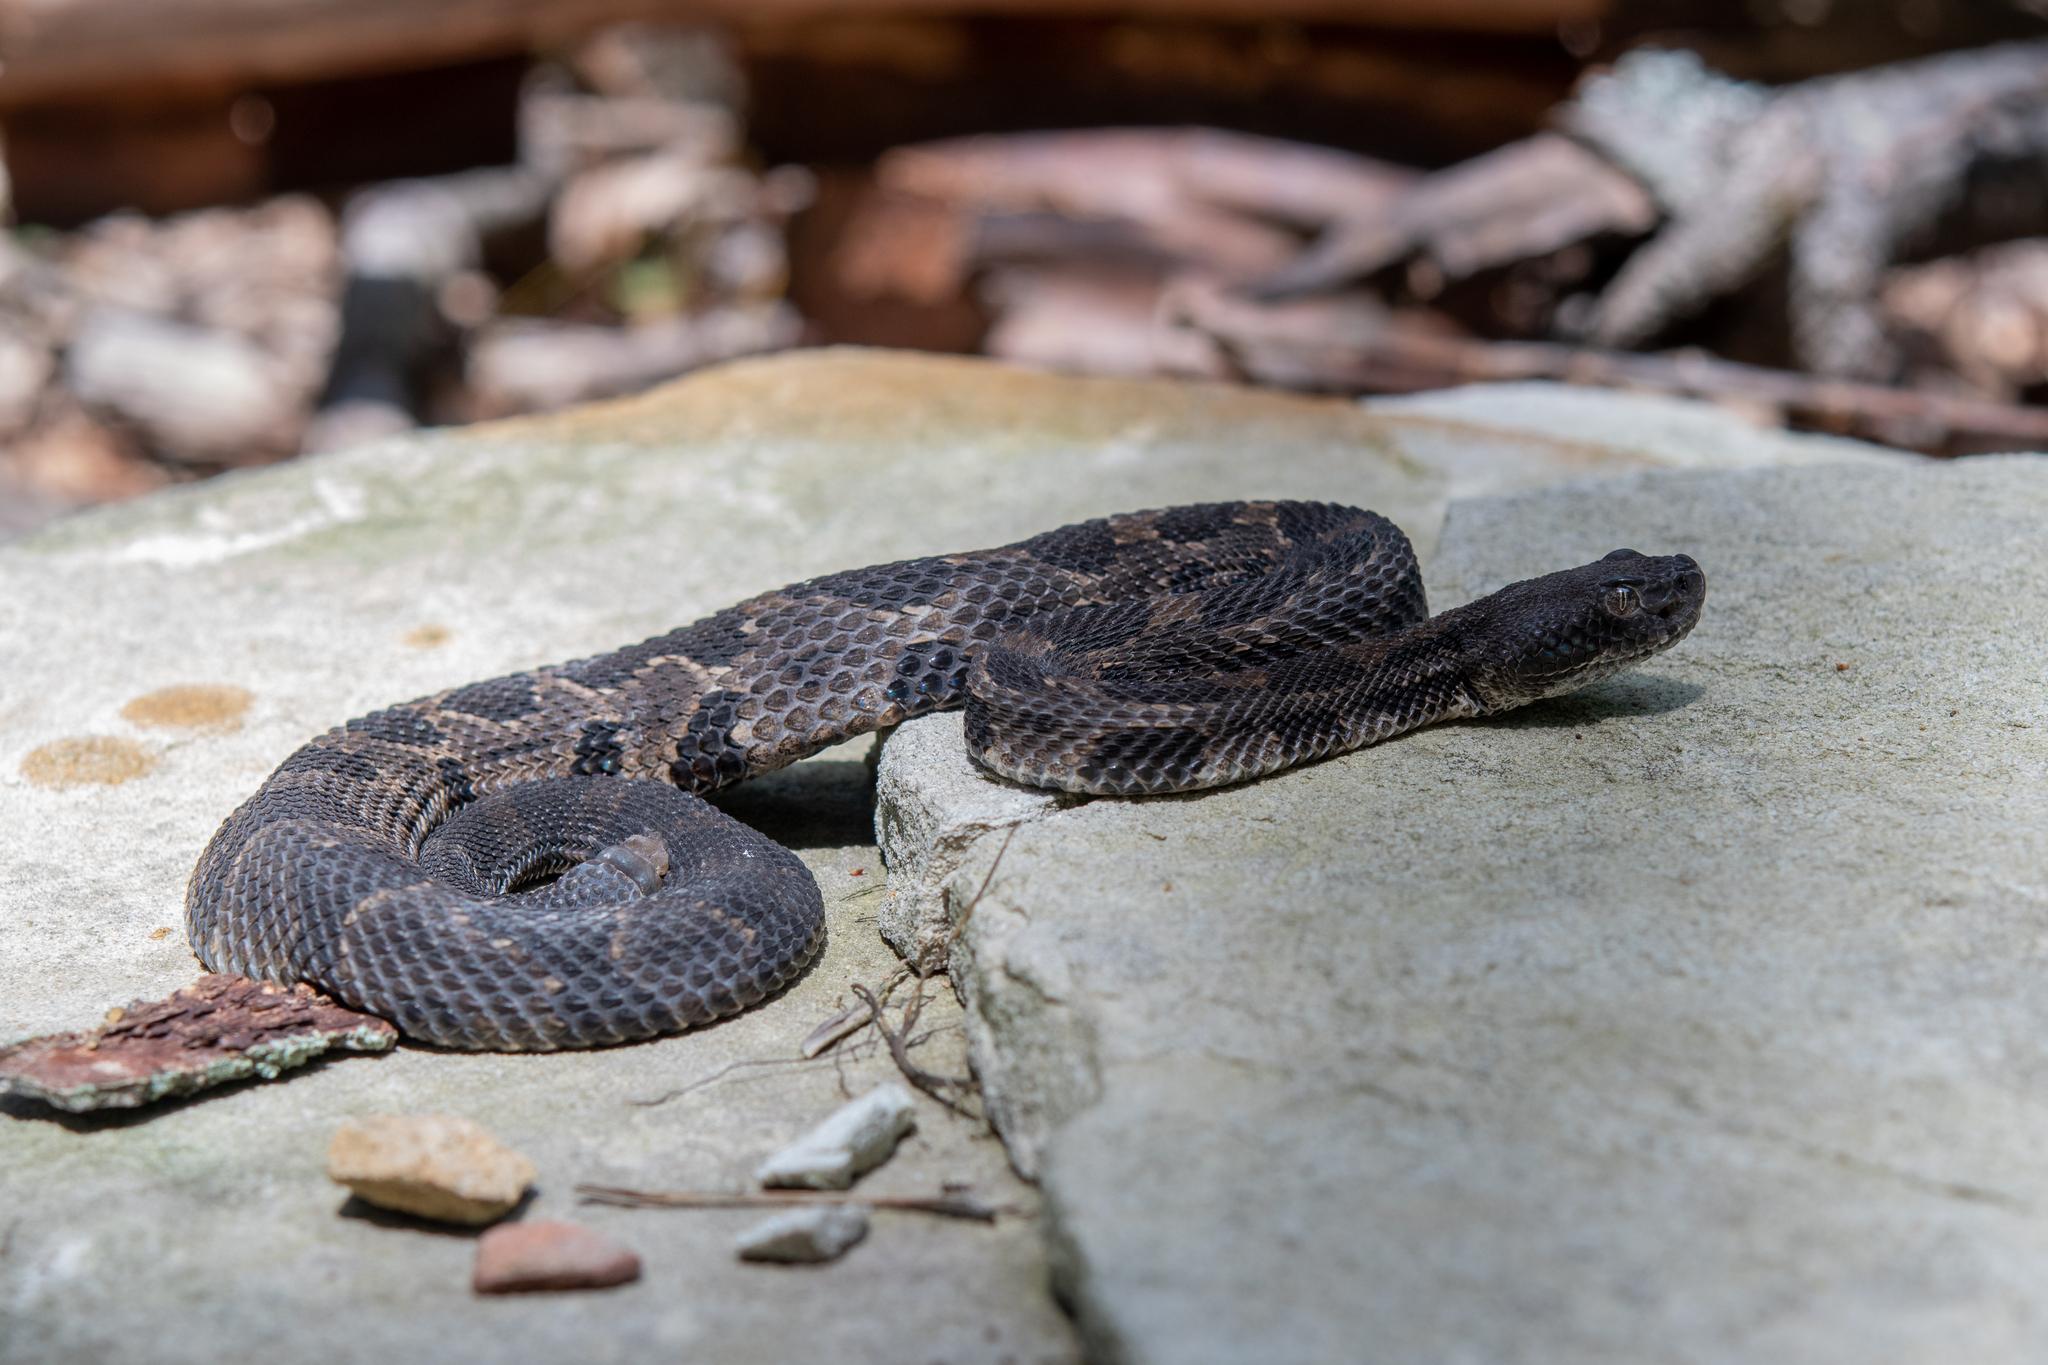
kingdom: Animalia
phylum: Chordata
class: Squamata
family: Viperidae
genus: Crotalus
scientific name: Crotalus horridus
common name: Timber rattlesnake
